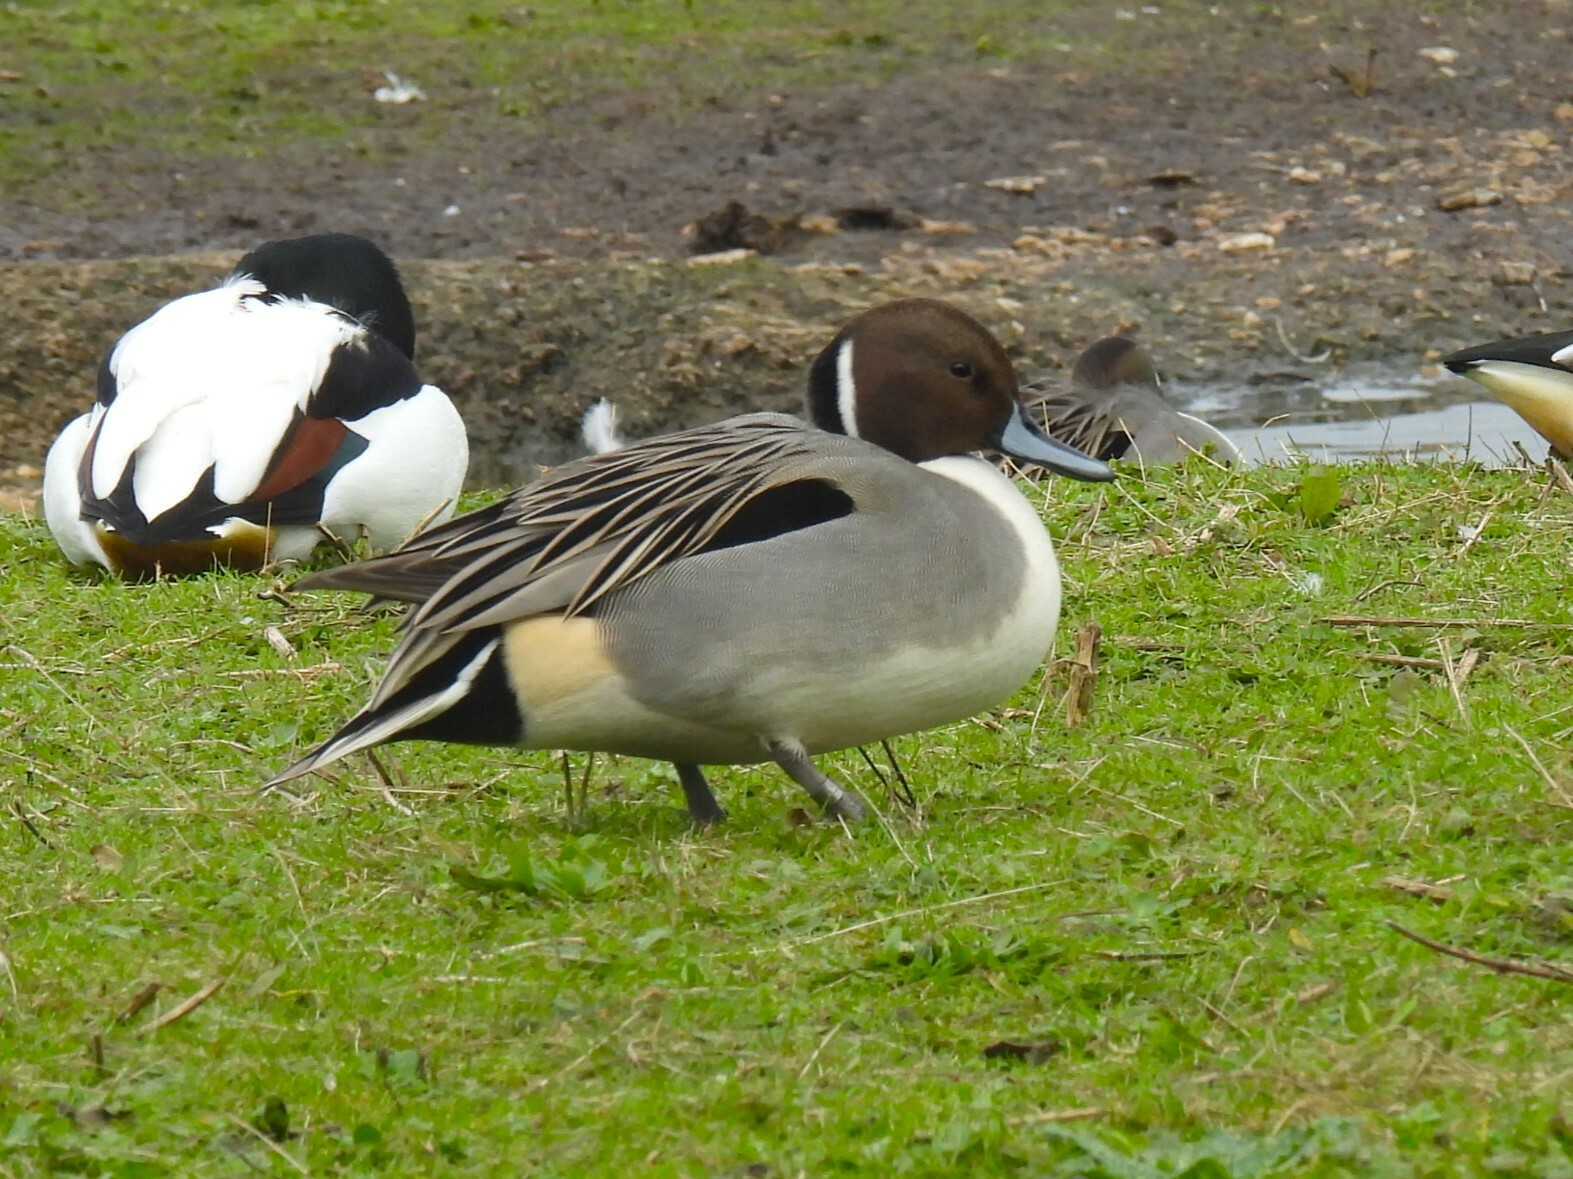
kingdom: Animalia
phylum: Chordata
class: Aves
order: Anseriformes
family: Anatidae
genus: Anas
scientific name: Anas acuta
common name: Northern pintail
